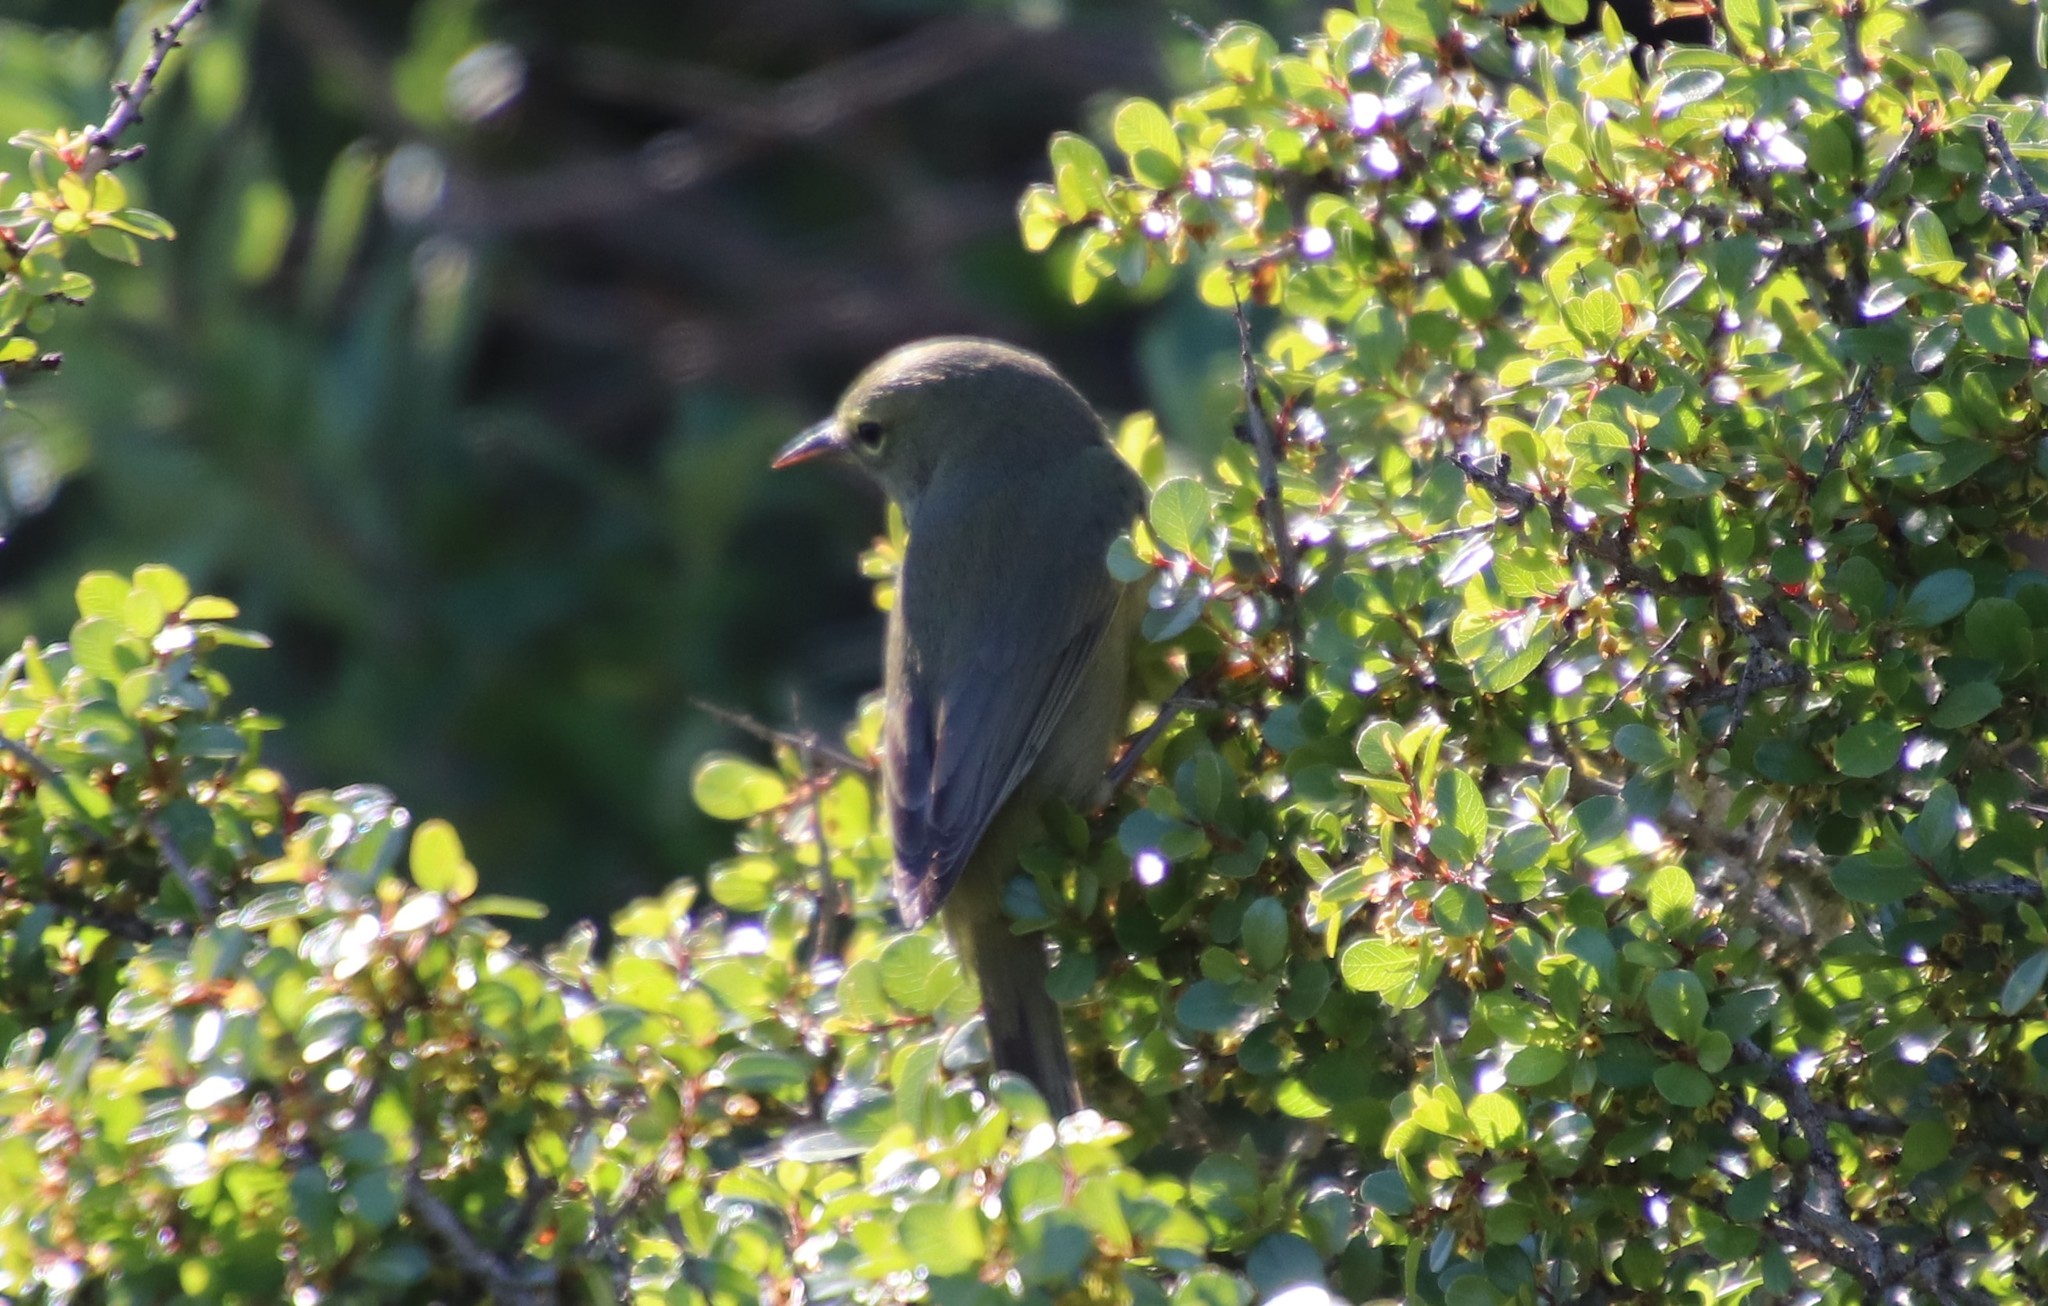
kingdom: Animalia
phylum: Chordata
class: Aves
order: Passeriformes
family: Parulidae
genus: Leiothlypis
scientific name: Leiothlypis celata
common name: Orange-crowned warbler
